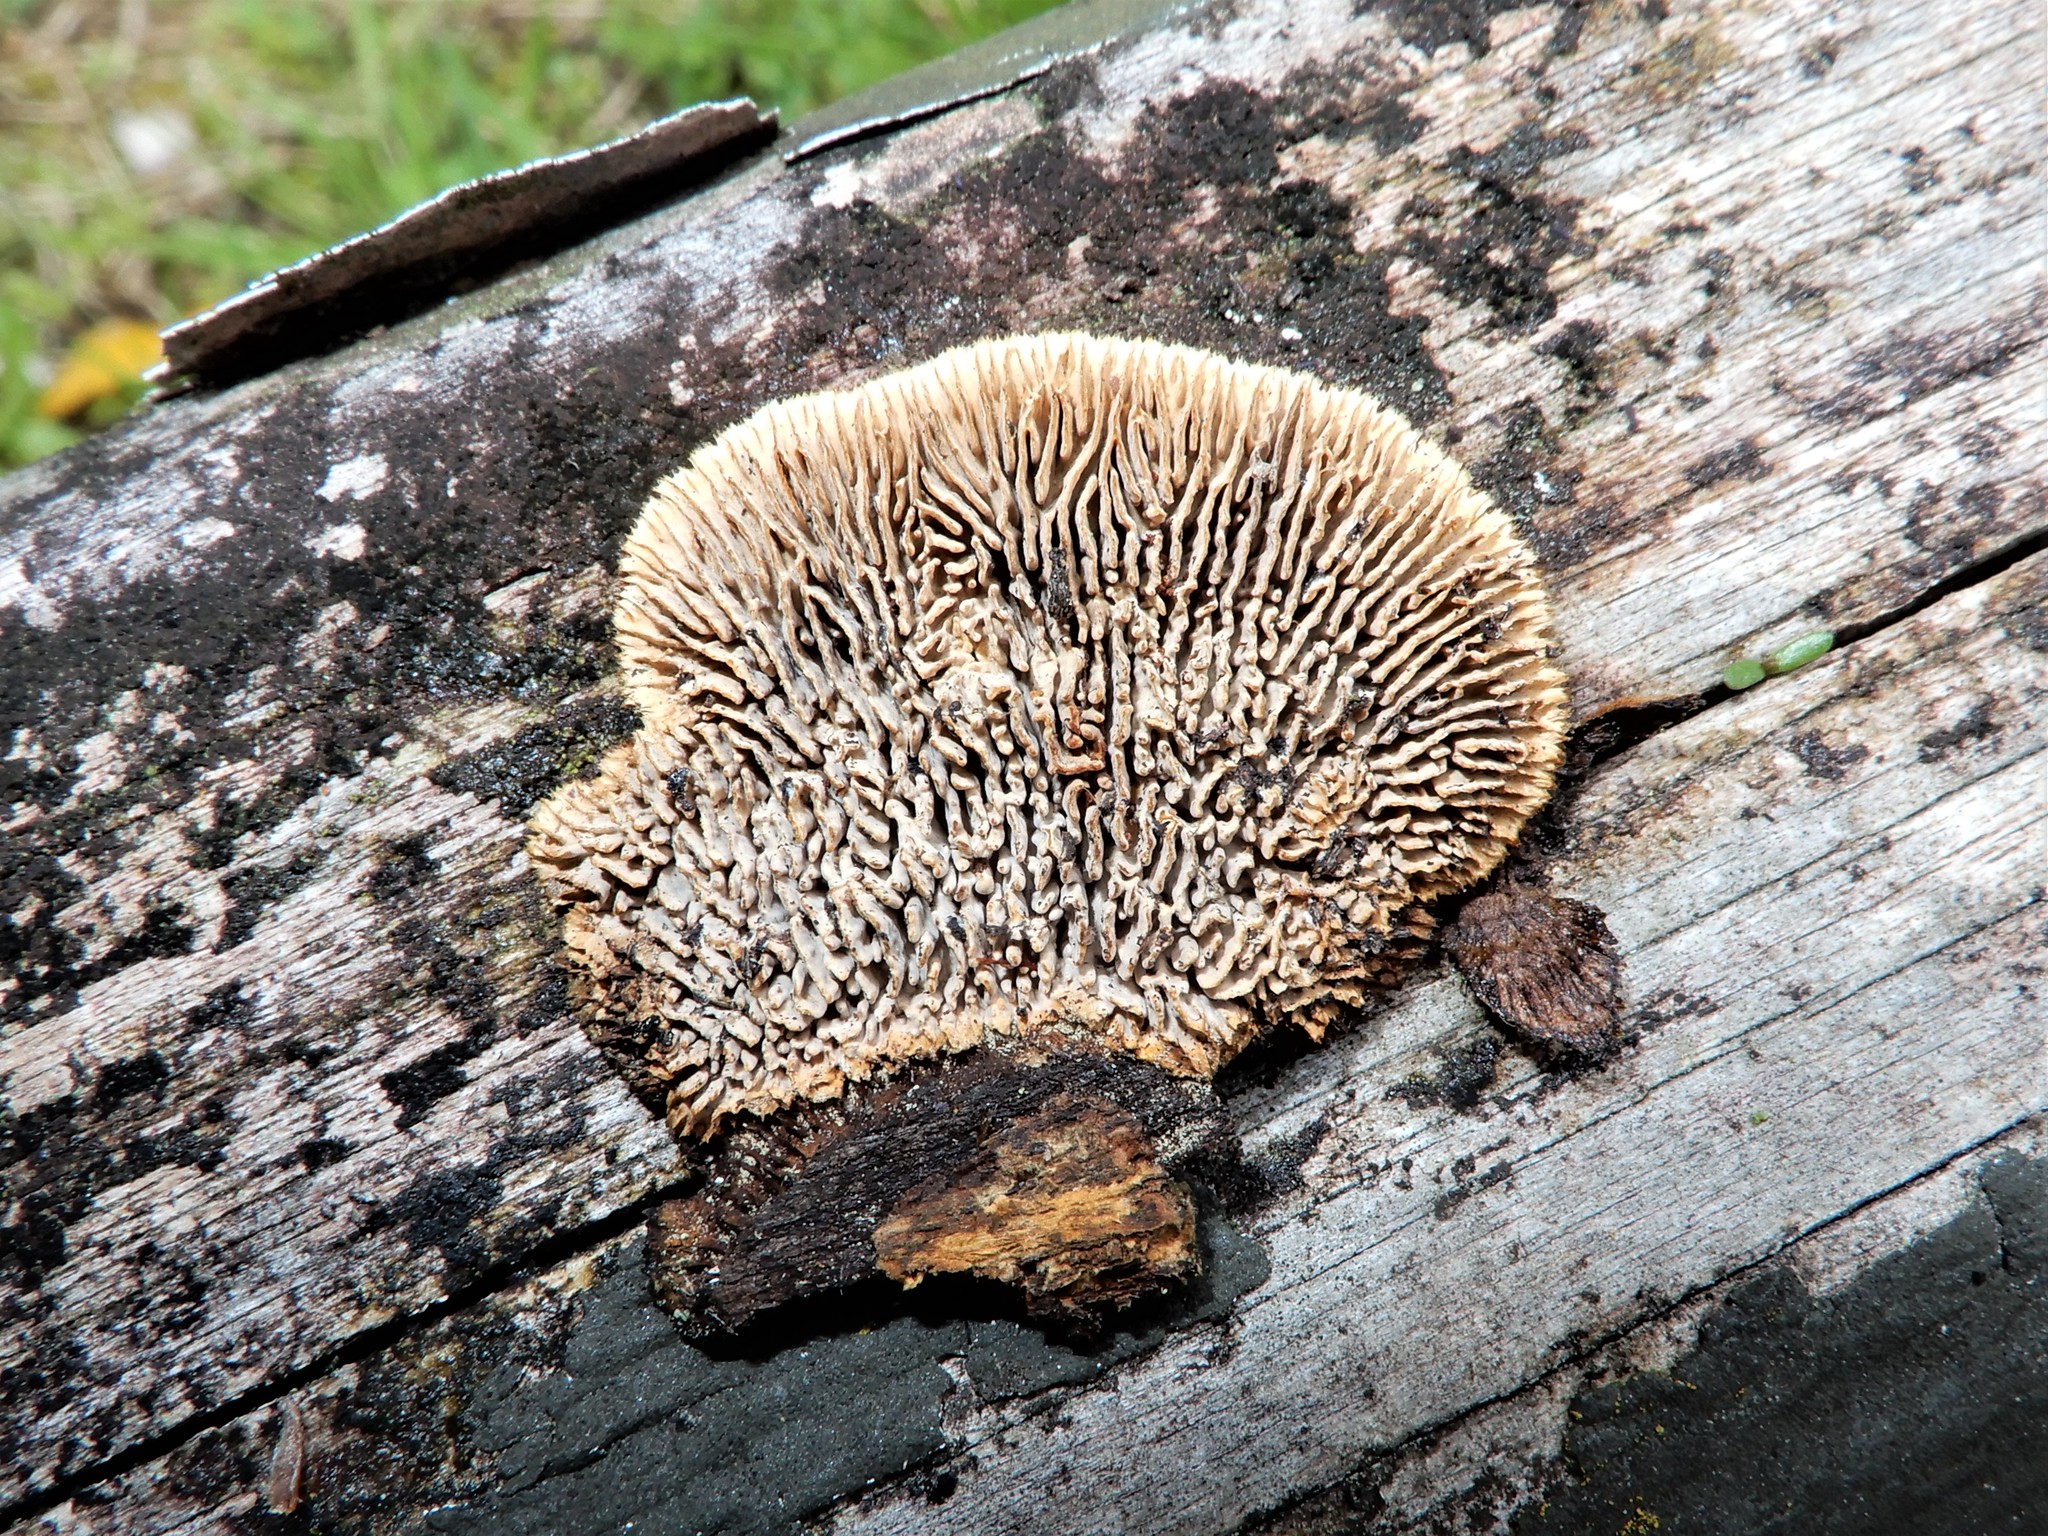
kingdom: Fungi
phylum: Basidiomycota
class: Agaricomycetes
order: Gloeophyllales
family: Gloeophyllaceae
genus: Gloeophyllum
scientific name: Gloeophyllum sepiarium
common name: Conifer mazegill
